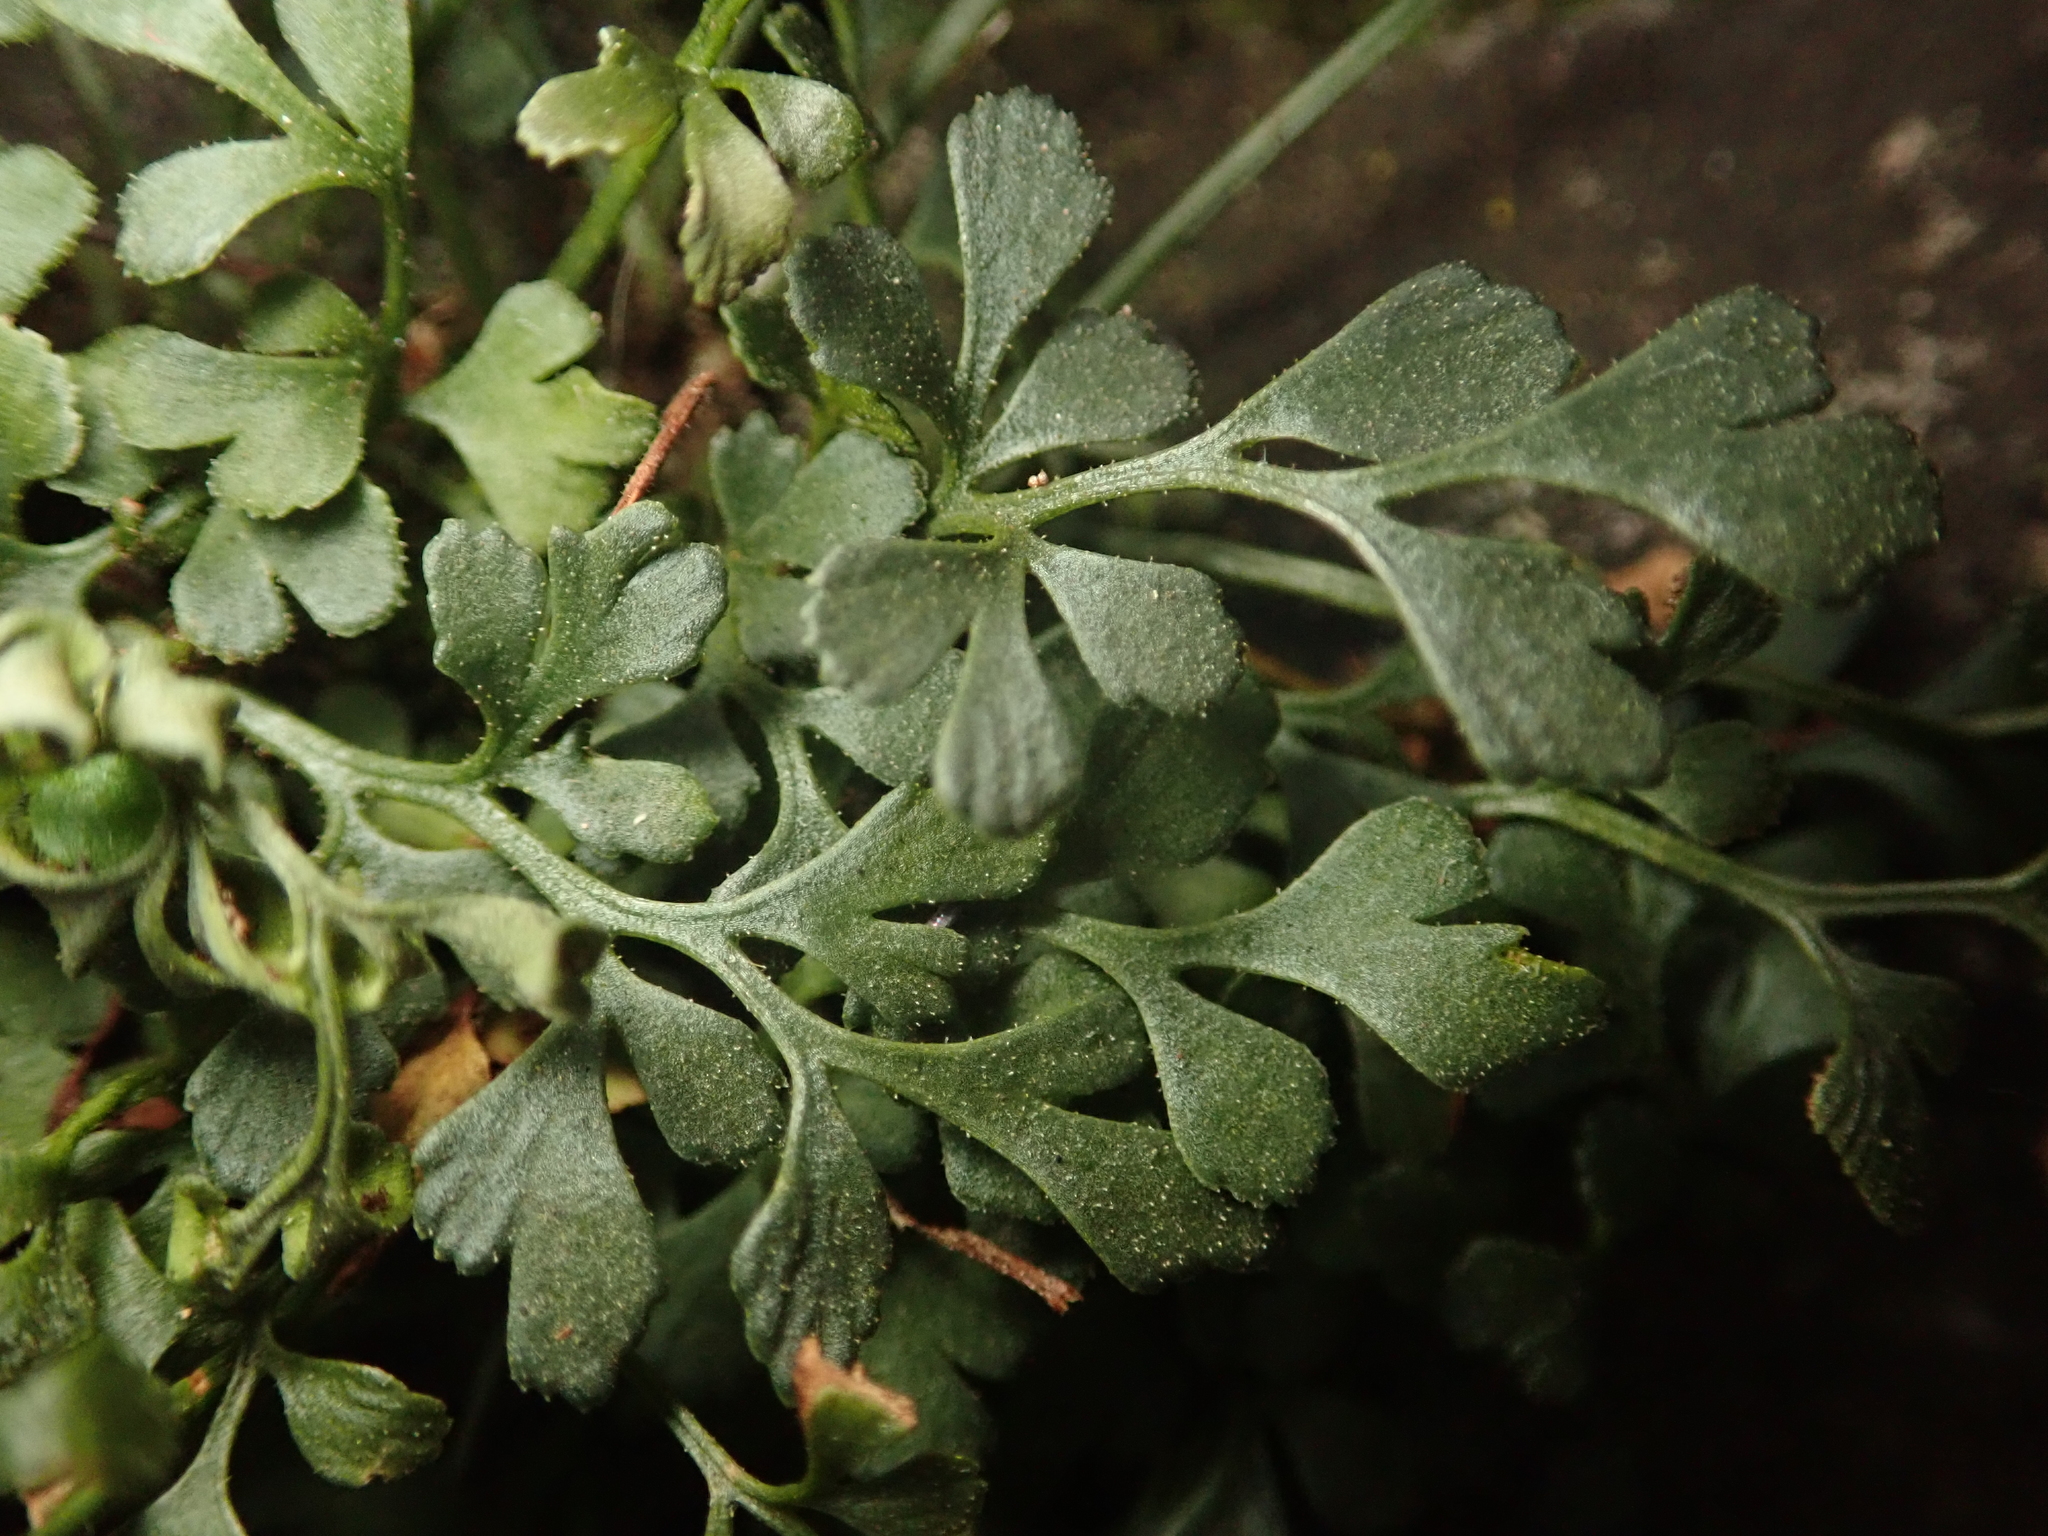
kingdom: Plantae
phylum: Tracheophyta
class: Polypodiopsida
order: Polypodiales
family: Aspleniaceae
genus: Asplenium
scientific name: Asplenium ruta-muraria
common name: Wall-rue
